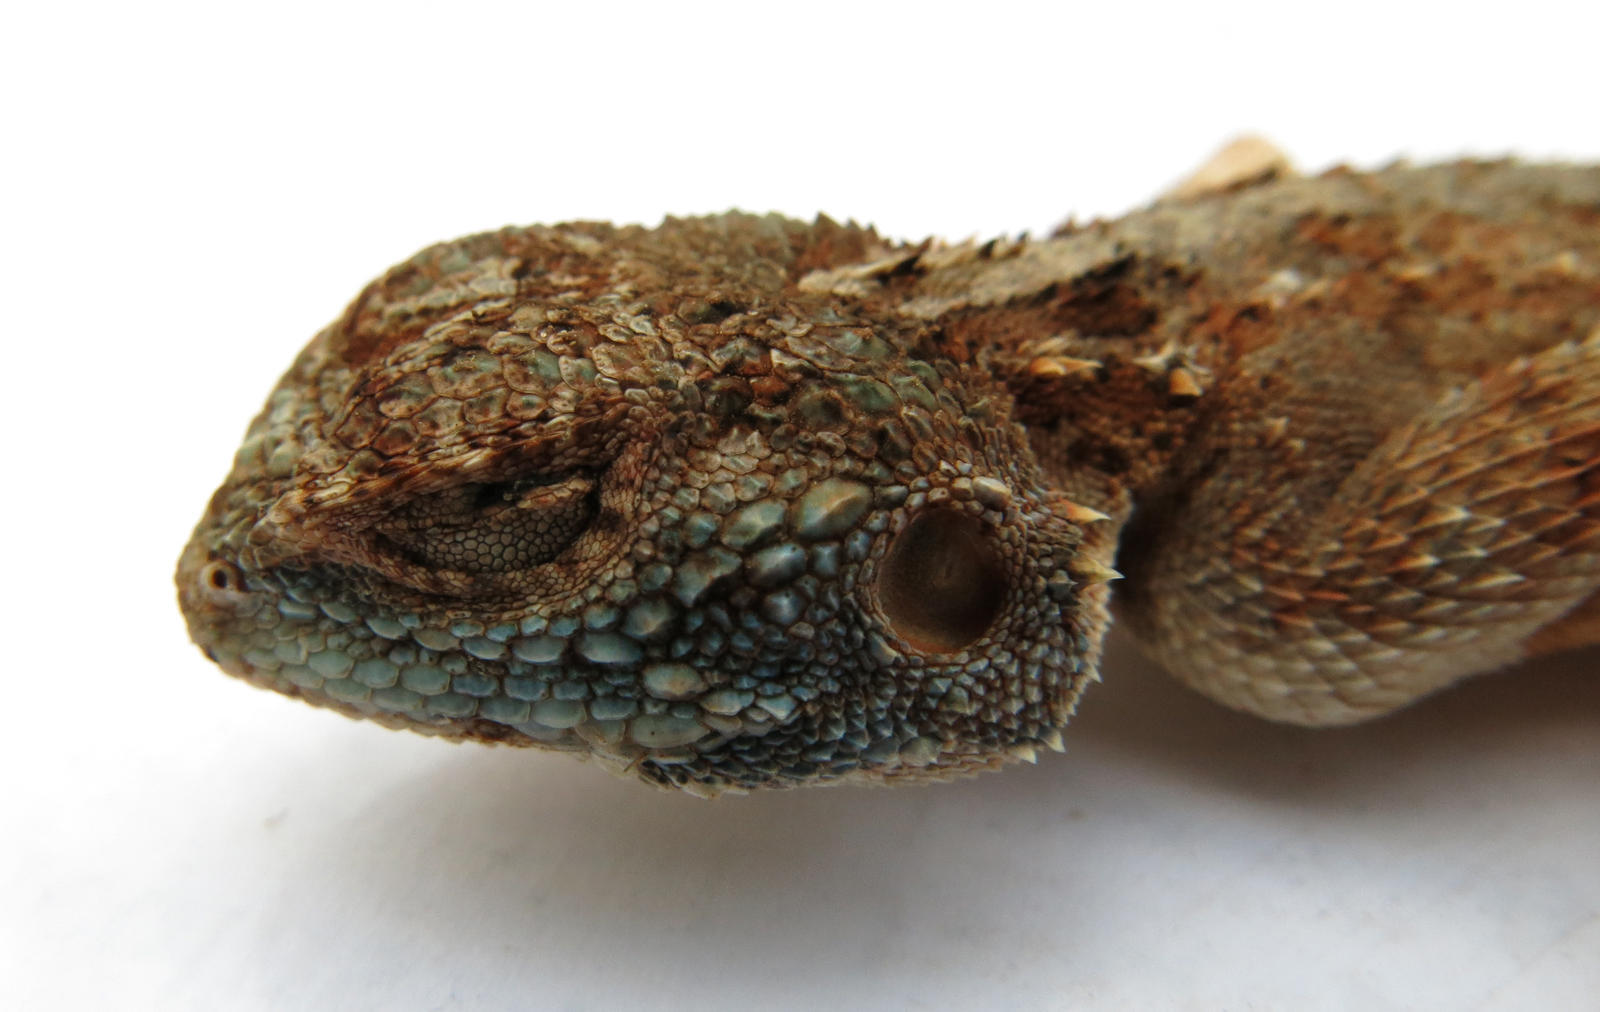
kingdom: Animalia
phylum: Chordata
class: Squamata
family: Agamidae
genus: Agama
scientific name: Agama armata
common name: Northern ground agama
